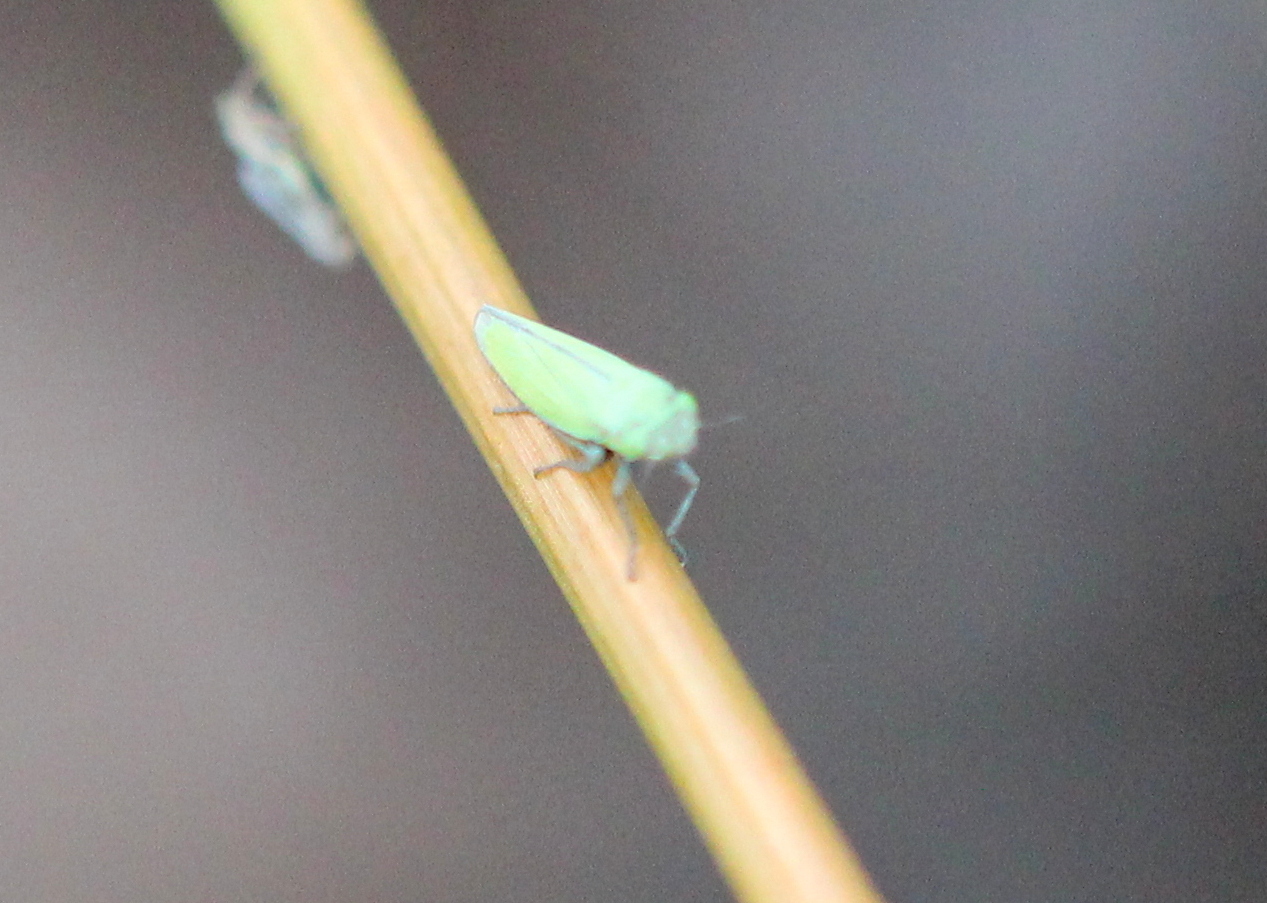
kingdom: Animalia
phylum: Arthropoda
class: Insecta
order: Hemiptera
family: Cicadellidae
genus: Helochara
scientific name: Helochara communis
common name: Bog leafhopper
